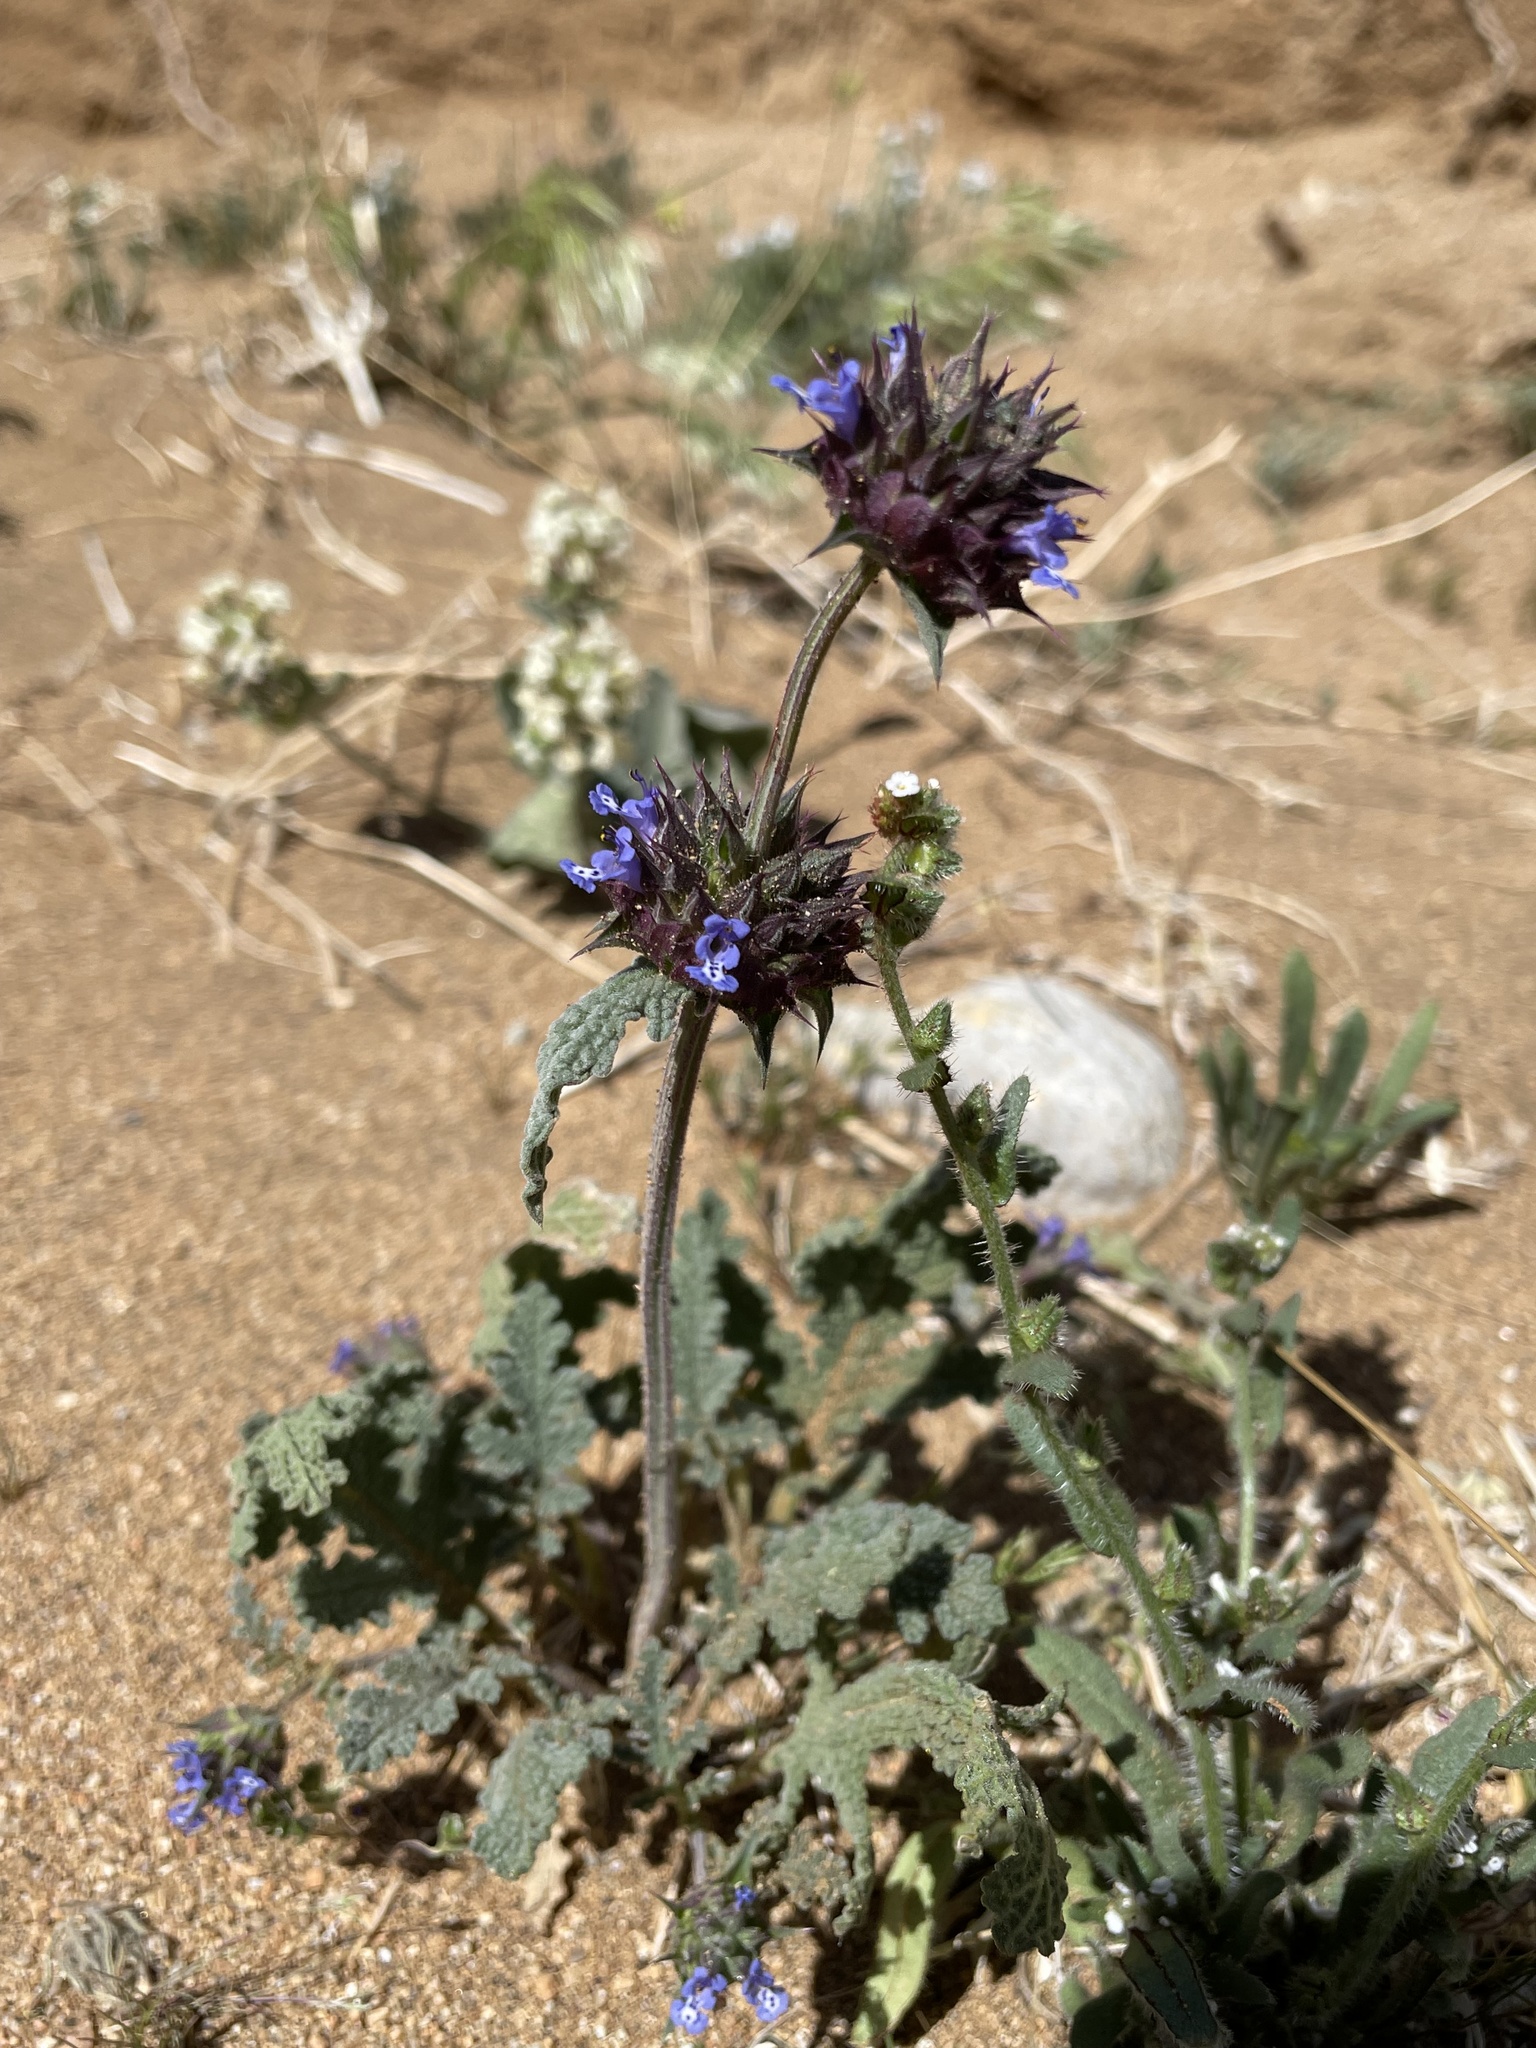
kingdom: Plantae
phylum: Tracheophyta
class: Magnoliopsida
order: Lamiales
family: Lamiaceae
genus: Salvia
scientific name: Salvia columbariae
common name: Chia
